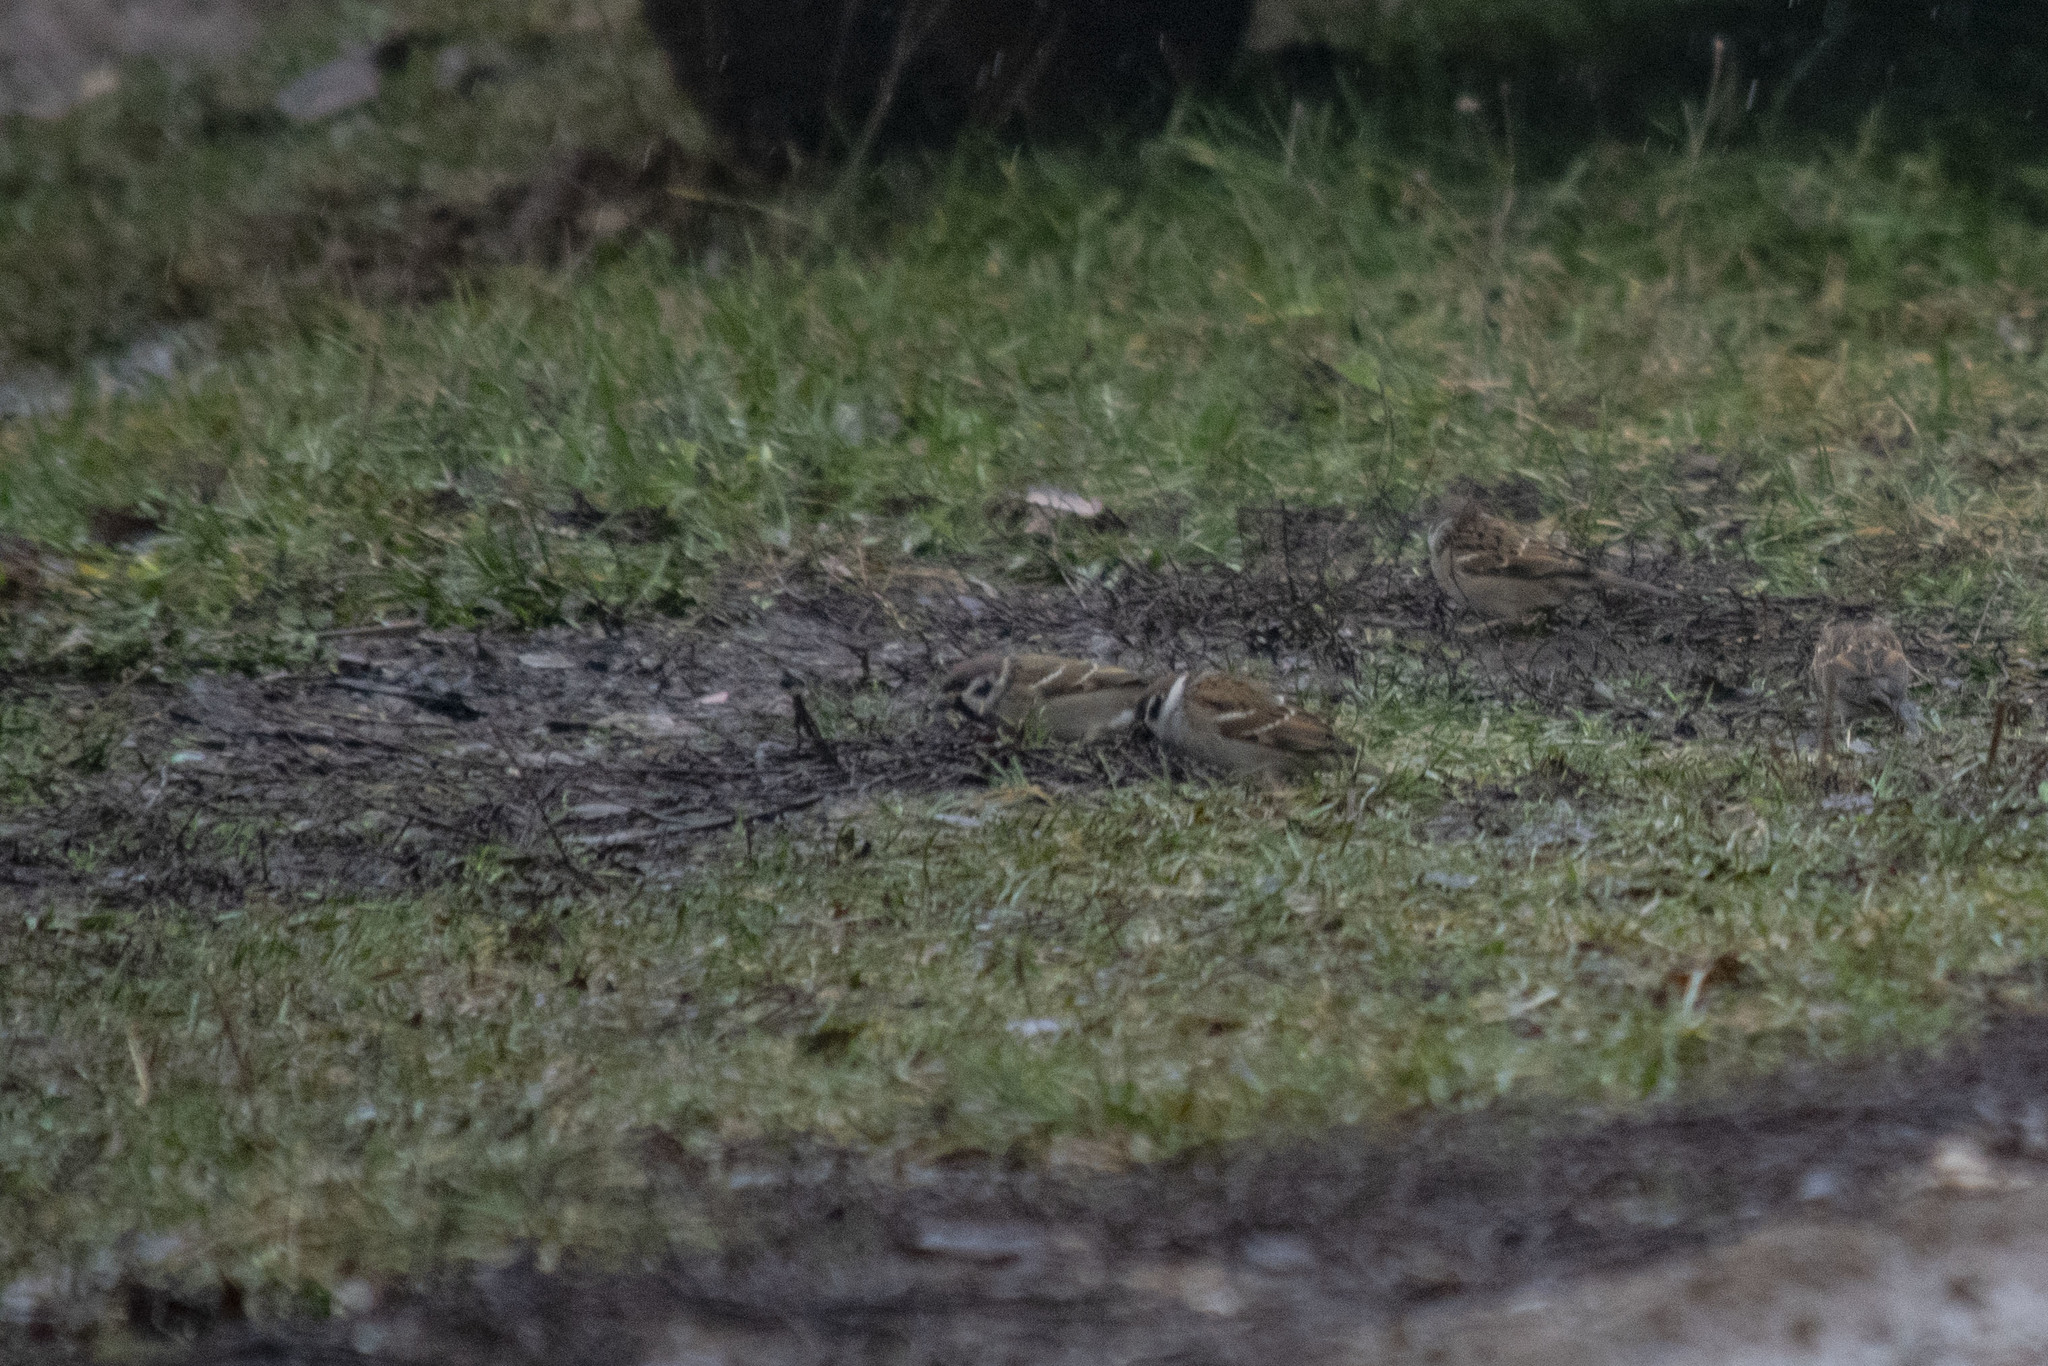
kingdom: Animalia
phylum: Chordata
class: Aves
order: Passeriformes
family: Passeridae
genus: Passer
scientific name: Passer montanus
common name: Eurasian tree sparrow
